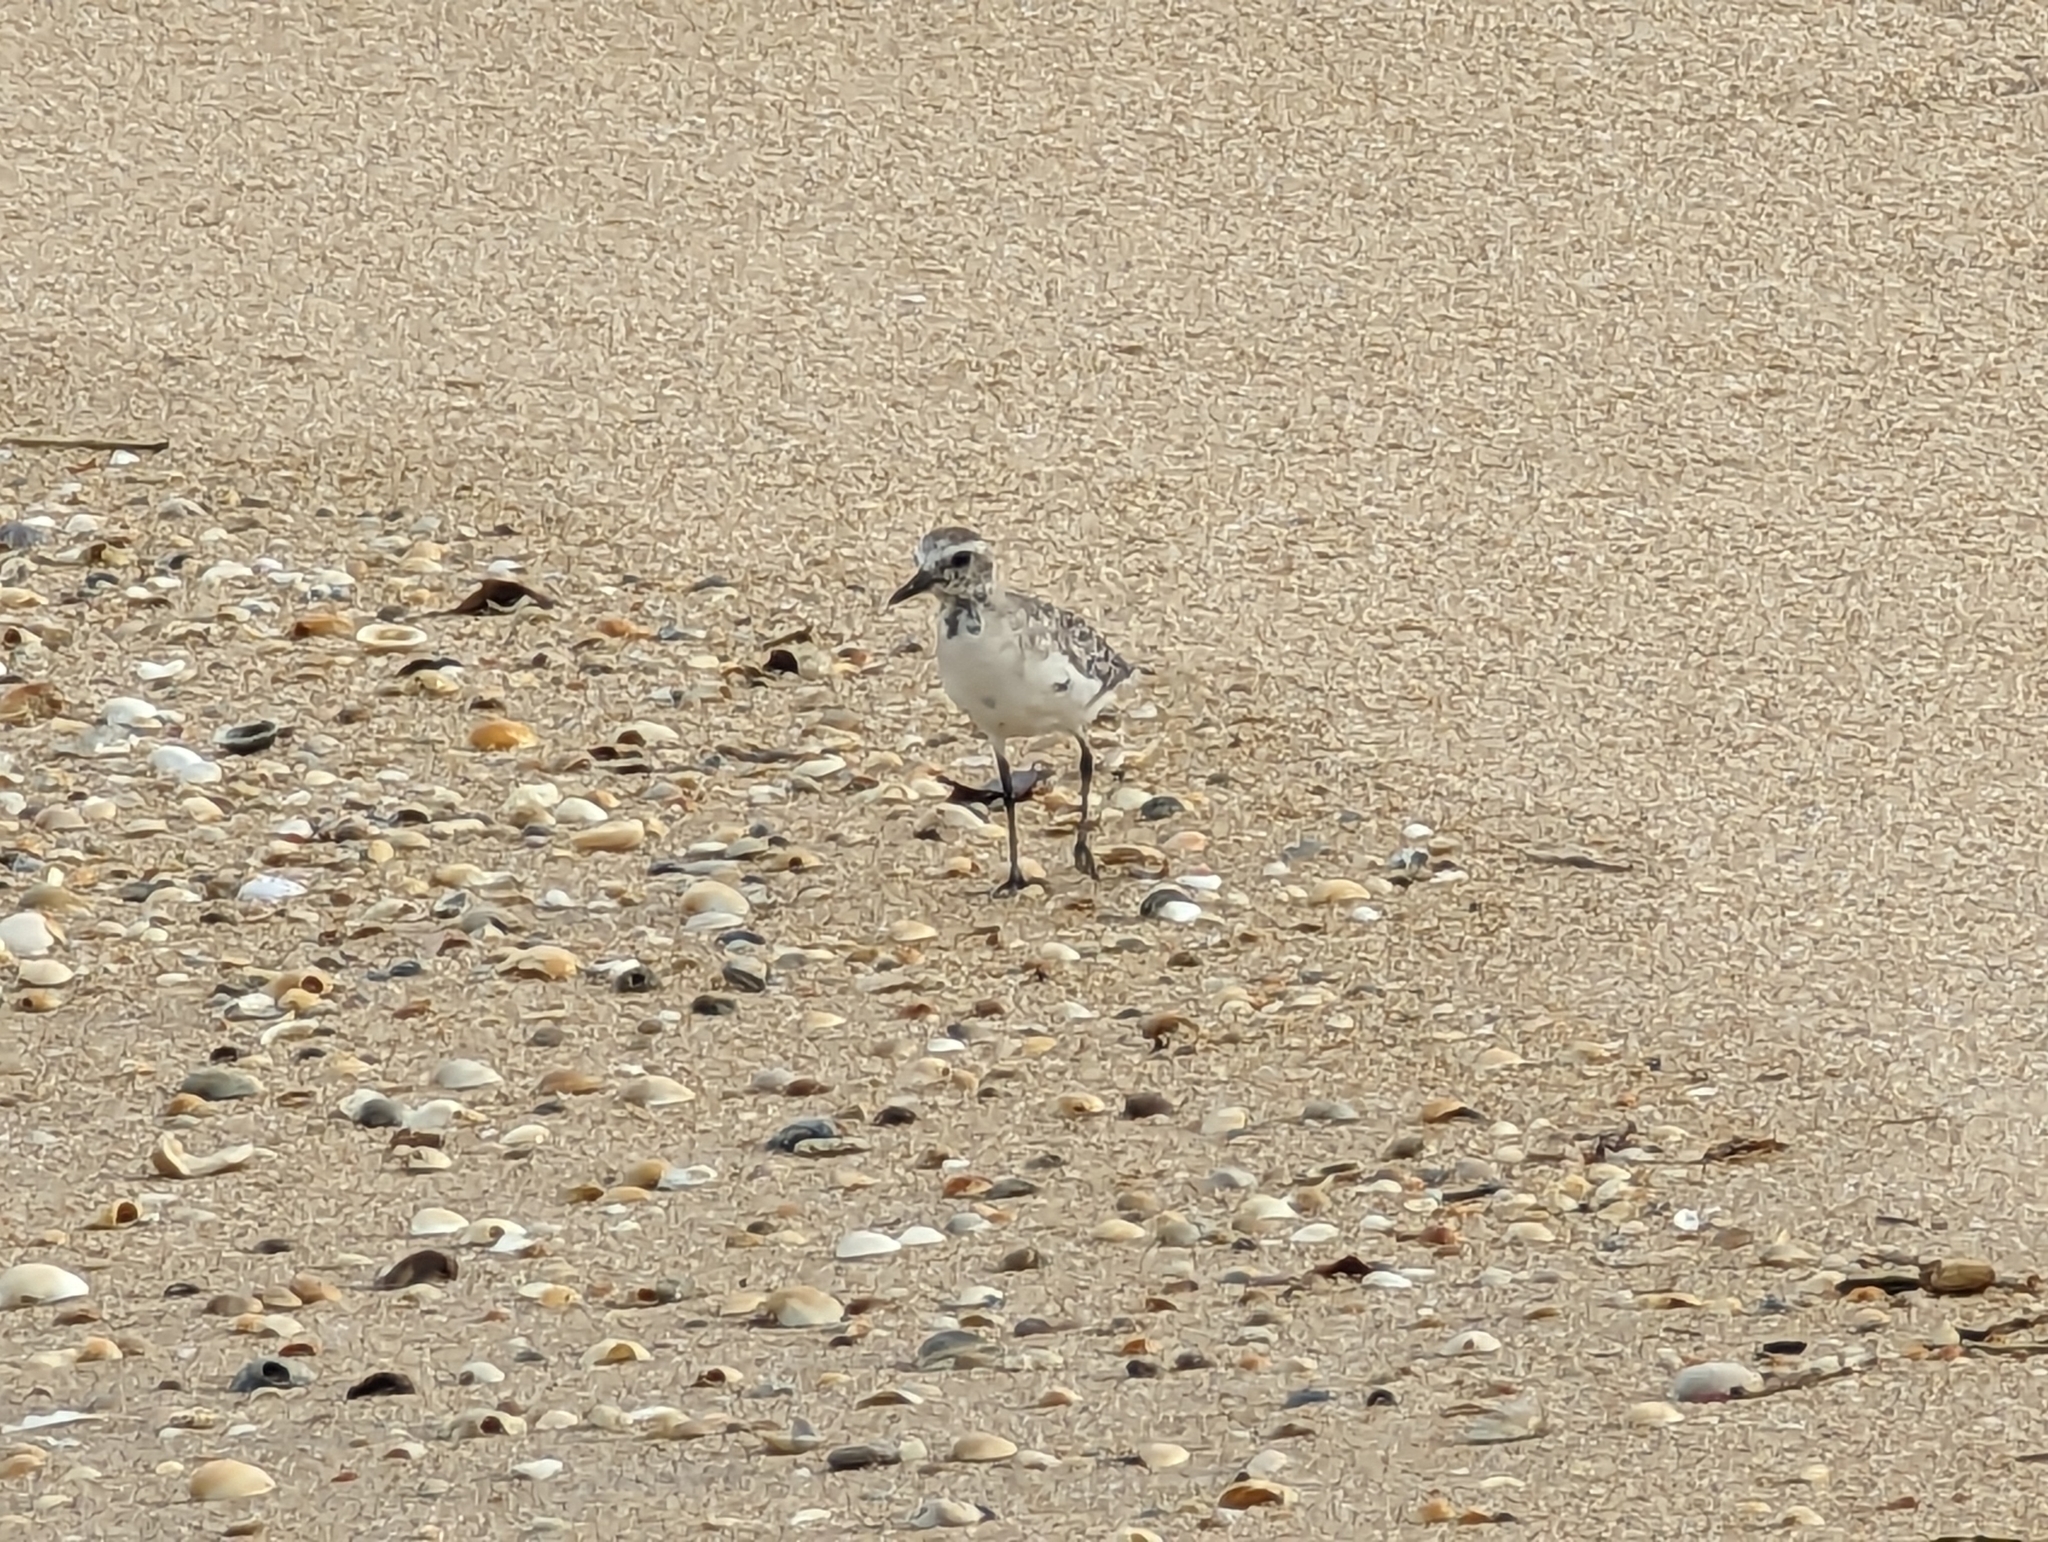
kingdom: Animalia
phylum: Chordata
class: Aves
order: Charadriiformes
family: Charadriidae
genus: Pluvialis
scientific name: Pluvialis squatarola
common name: Grey plover
